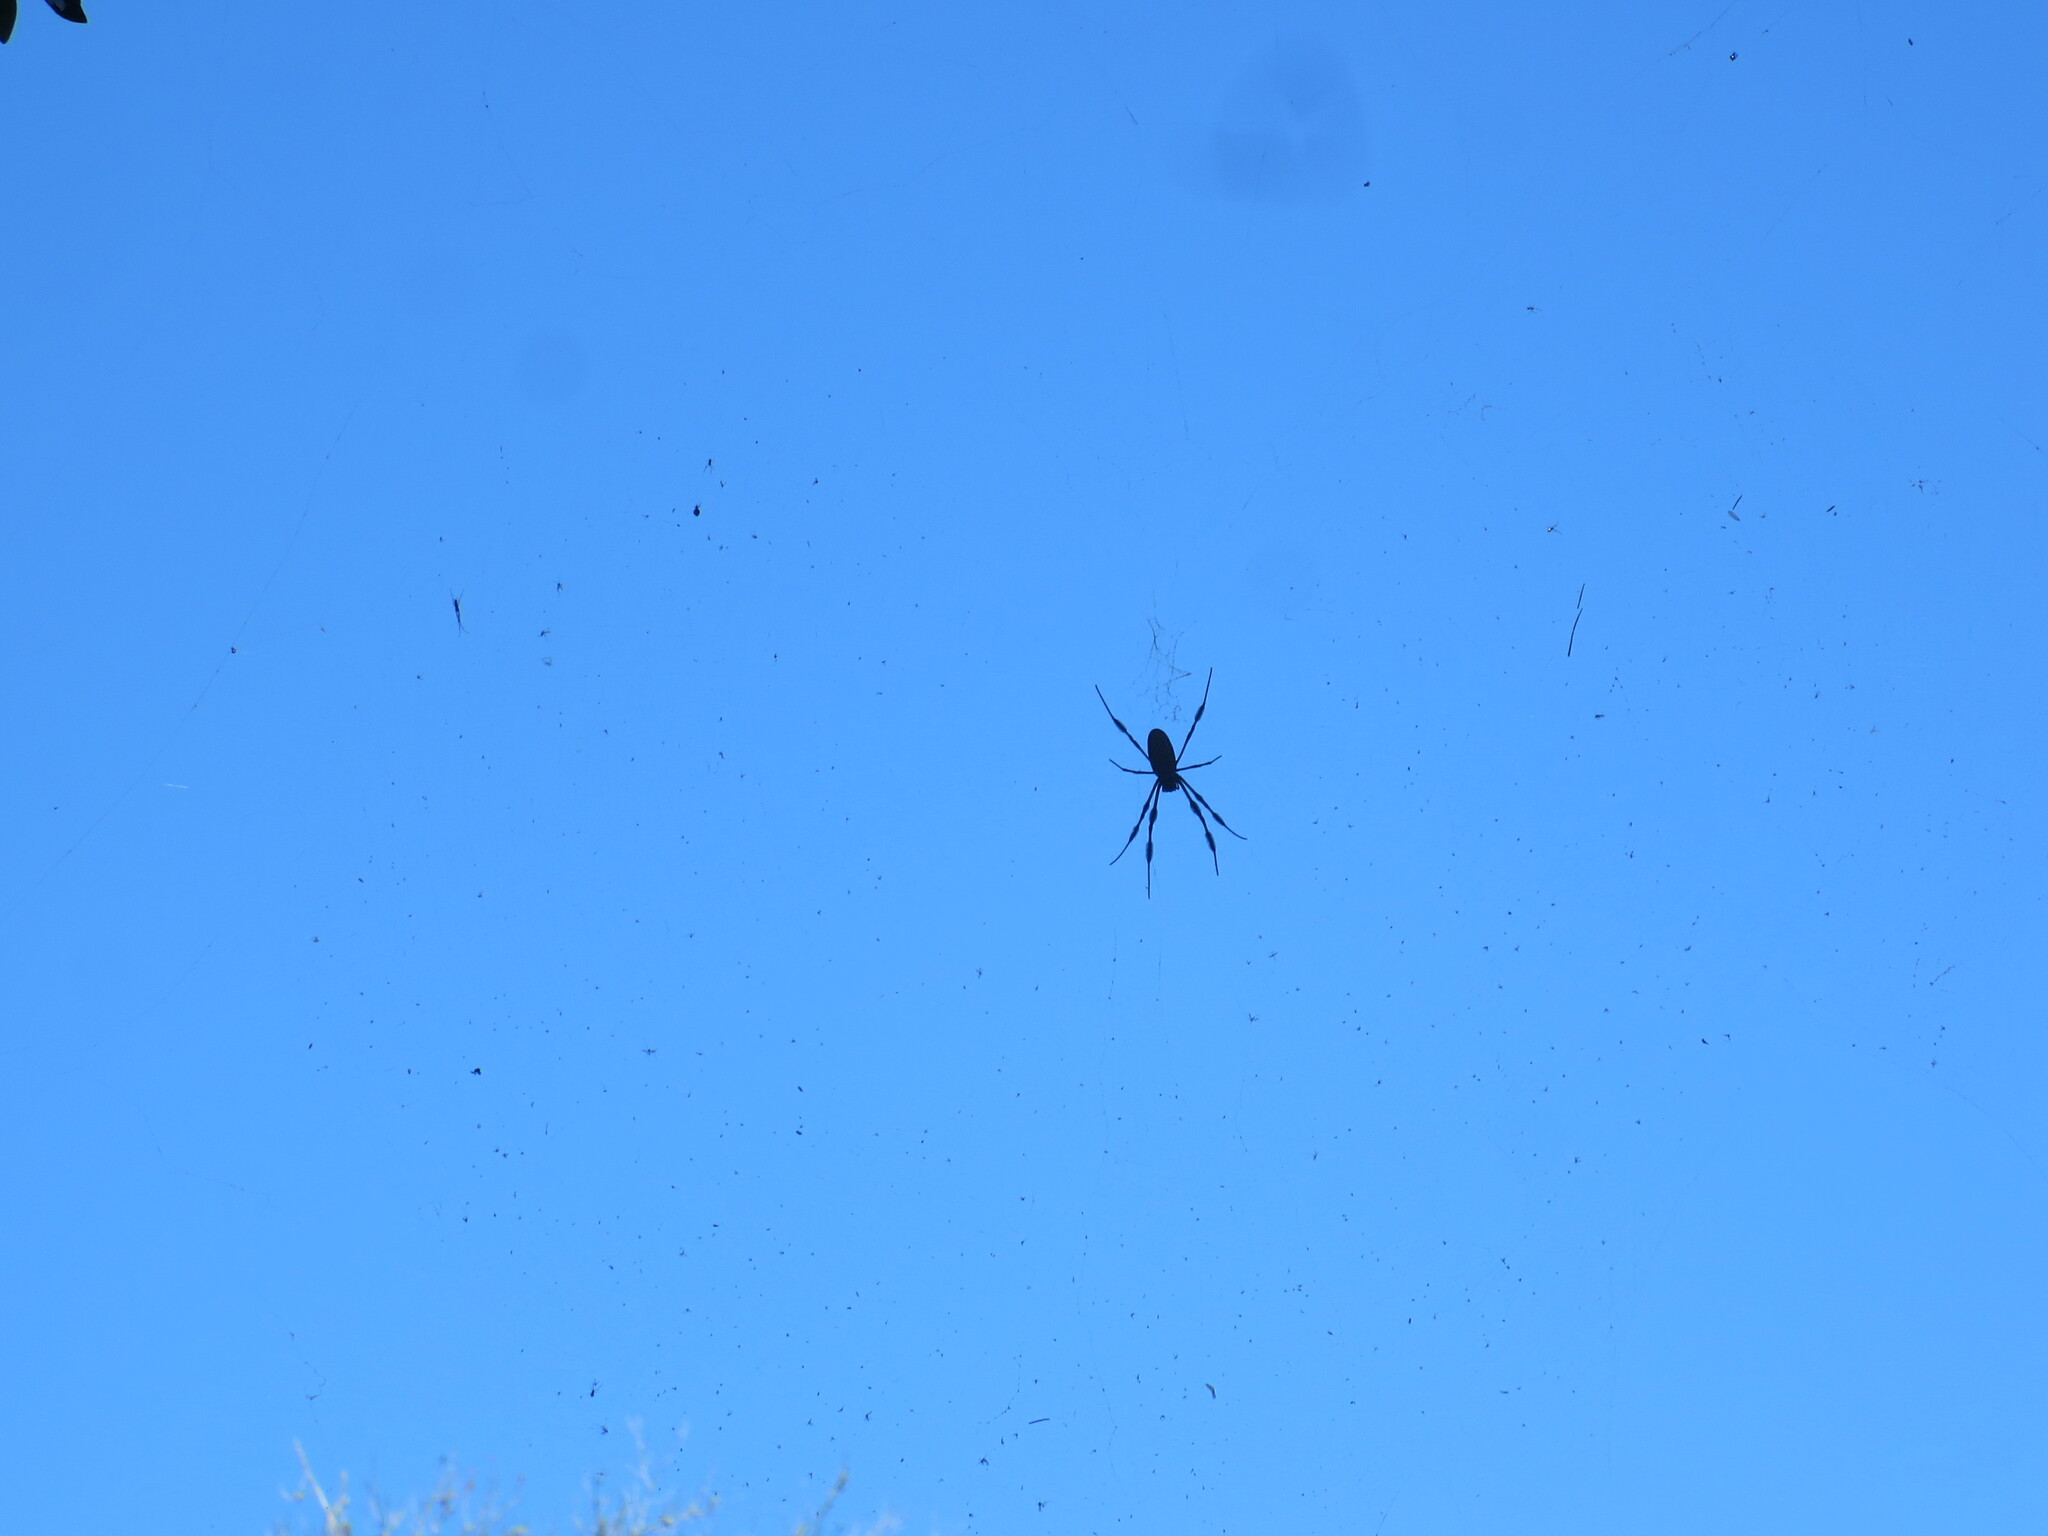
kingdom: Animalia
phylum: Arthropoda
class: Arachnida
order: Araneae
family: Araneidae
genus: Trichonephila
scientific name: Trichonephila clavipes
